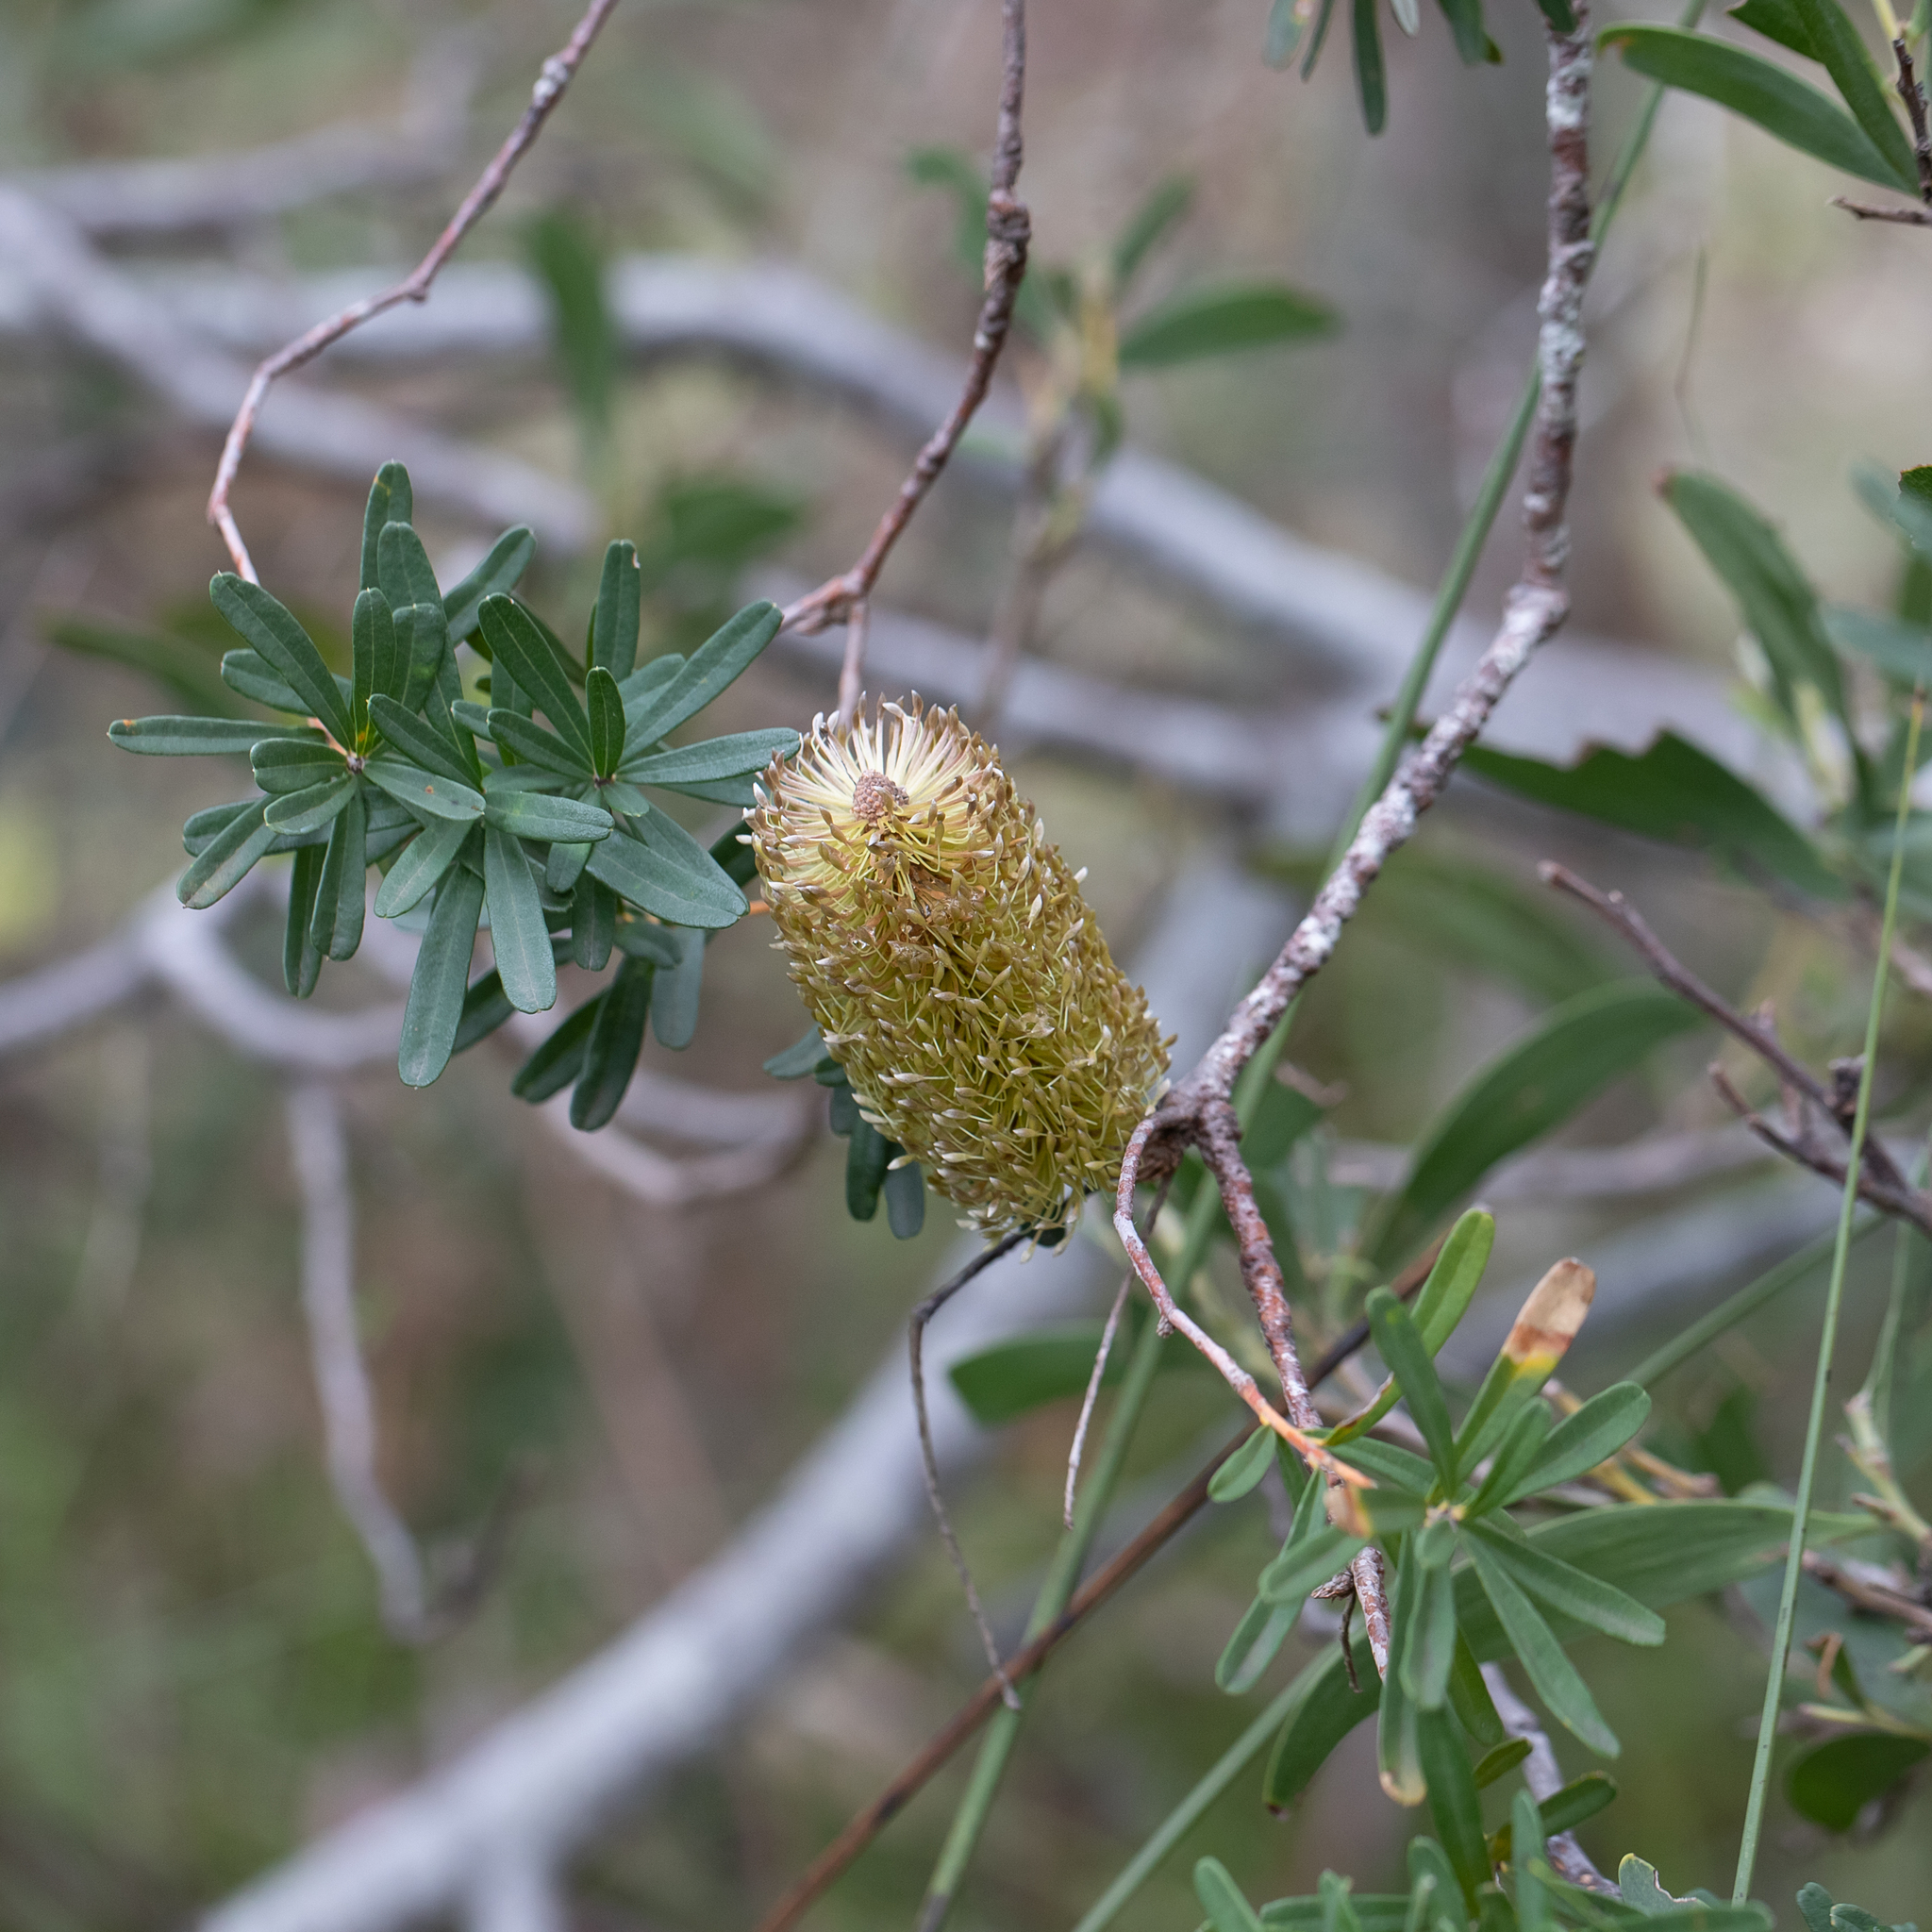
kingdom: Plantae
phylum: Tracheophyta
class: Magnoliopsida
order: Proteales
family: Proteaceae
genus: Banksia
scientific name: Banksia marginata
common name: Silver banksia
